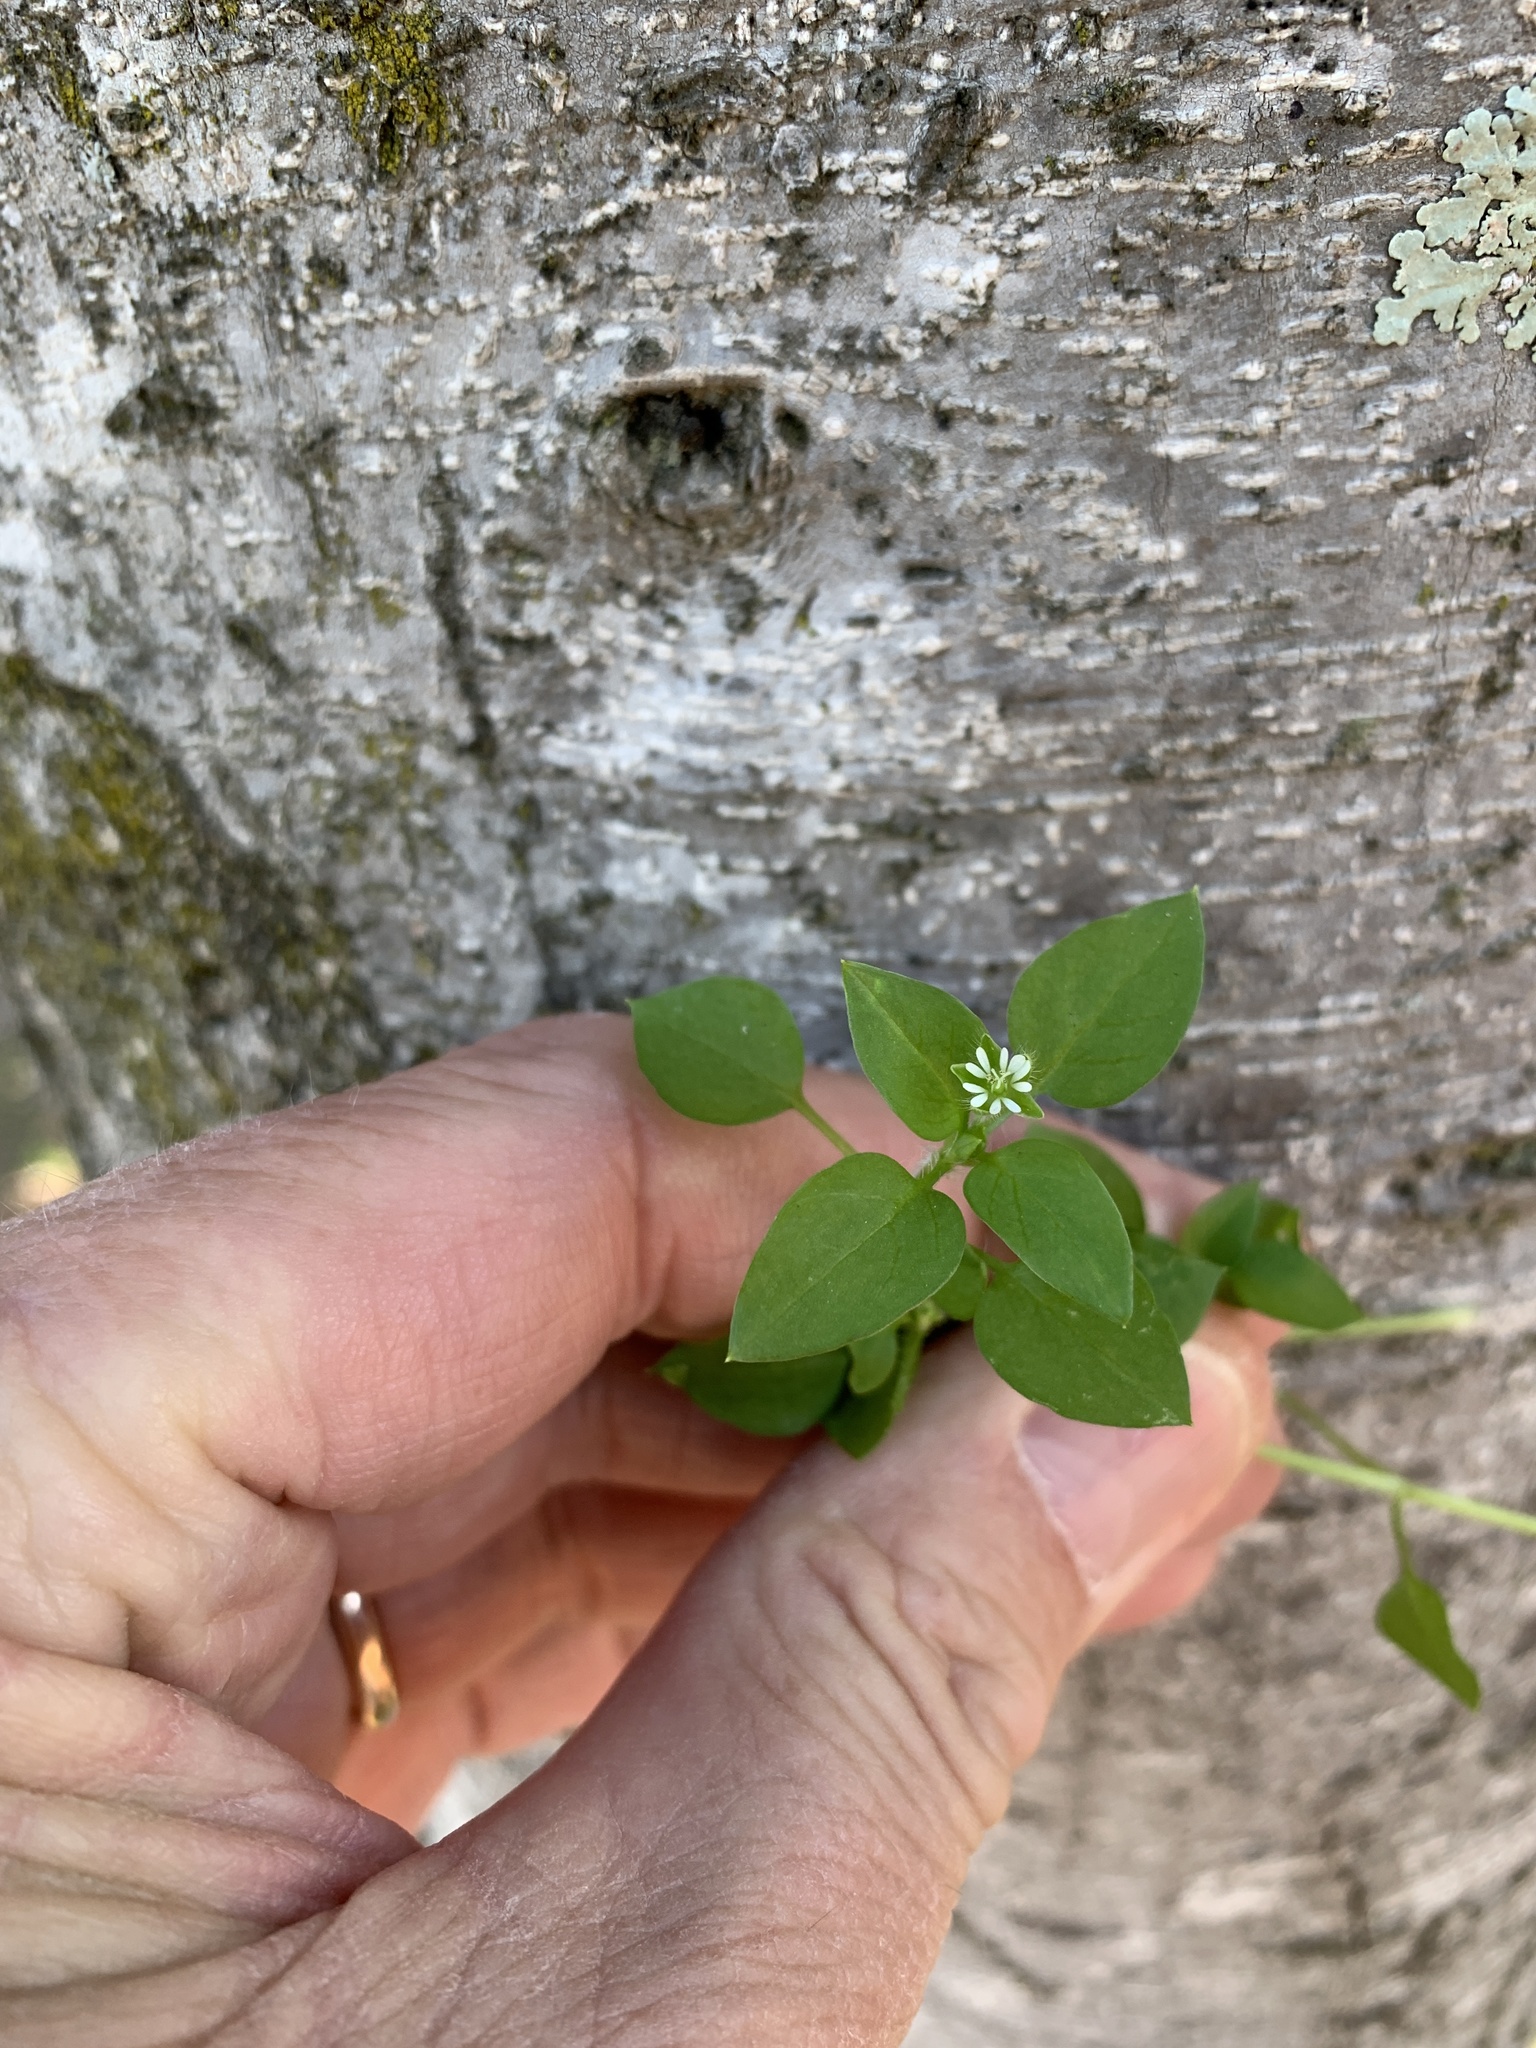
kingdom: Plantae
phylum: Tracheophyta
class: Magnoliopsida
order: Caryophyllales
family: Caryophyllaceae
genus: Stellaria
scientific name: Stellaria media
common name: Common chickweed
